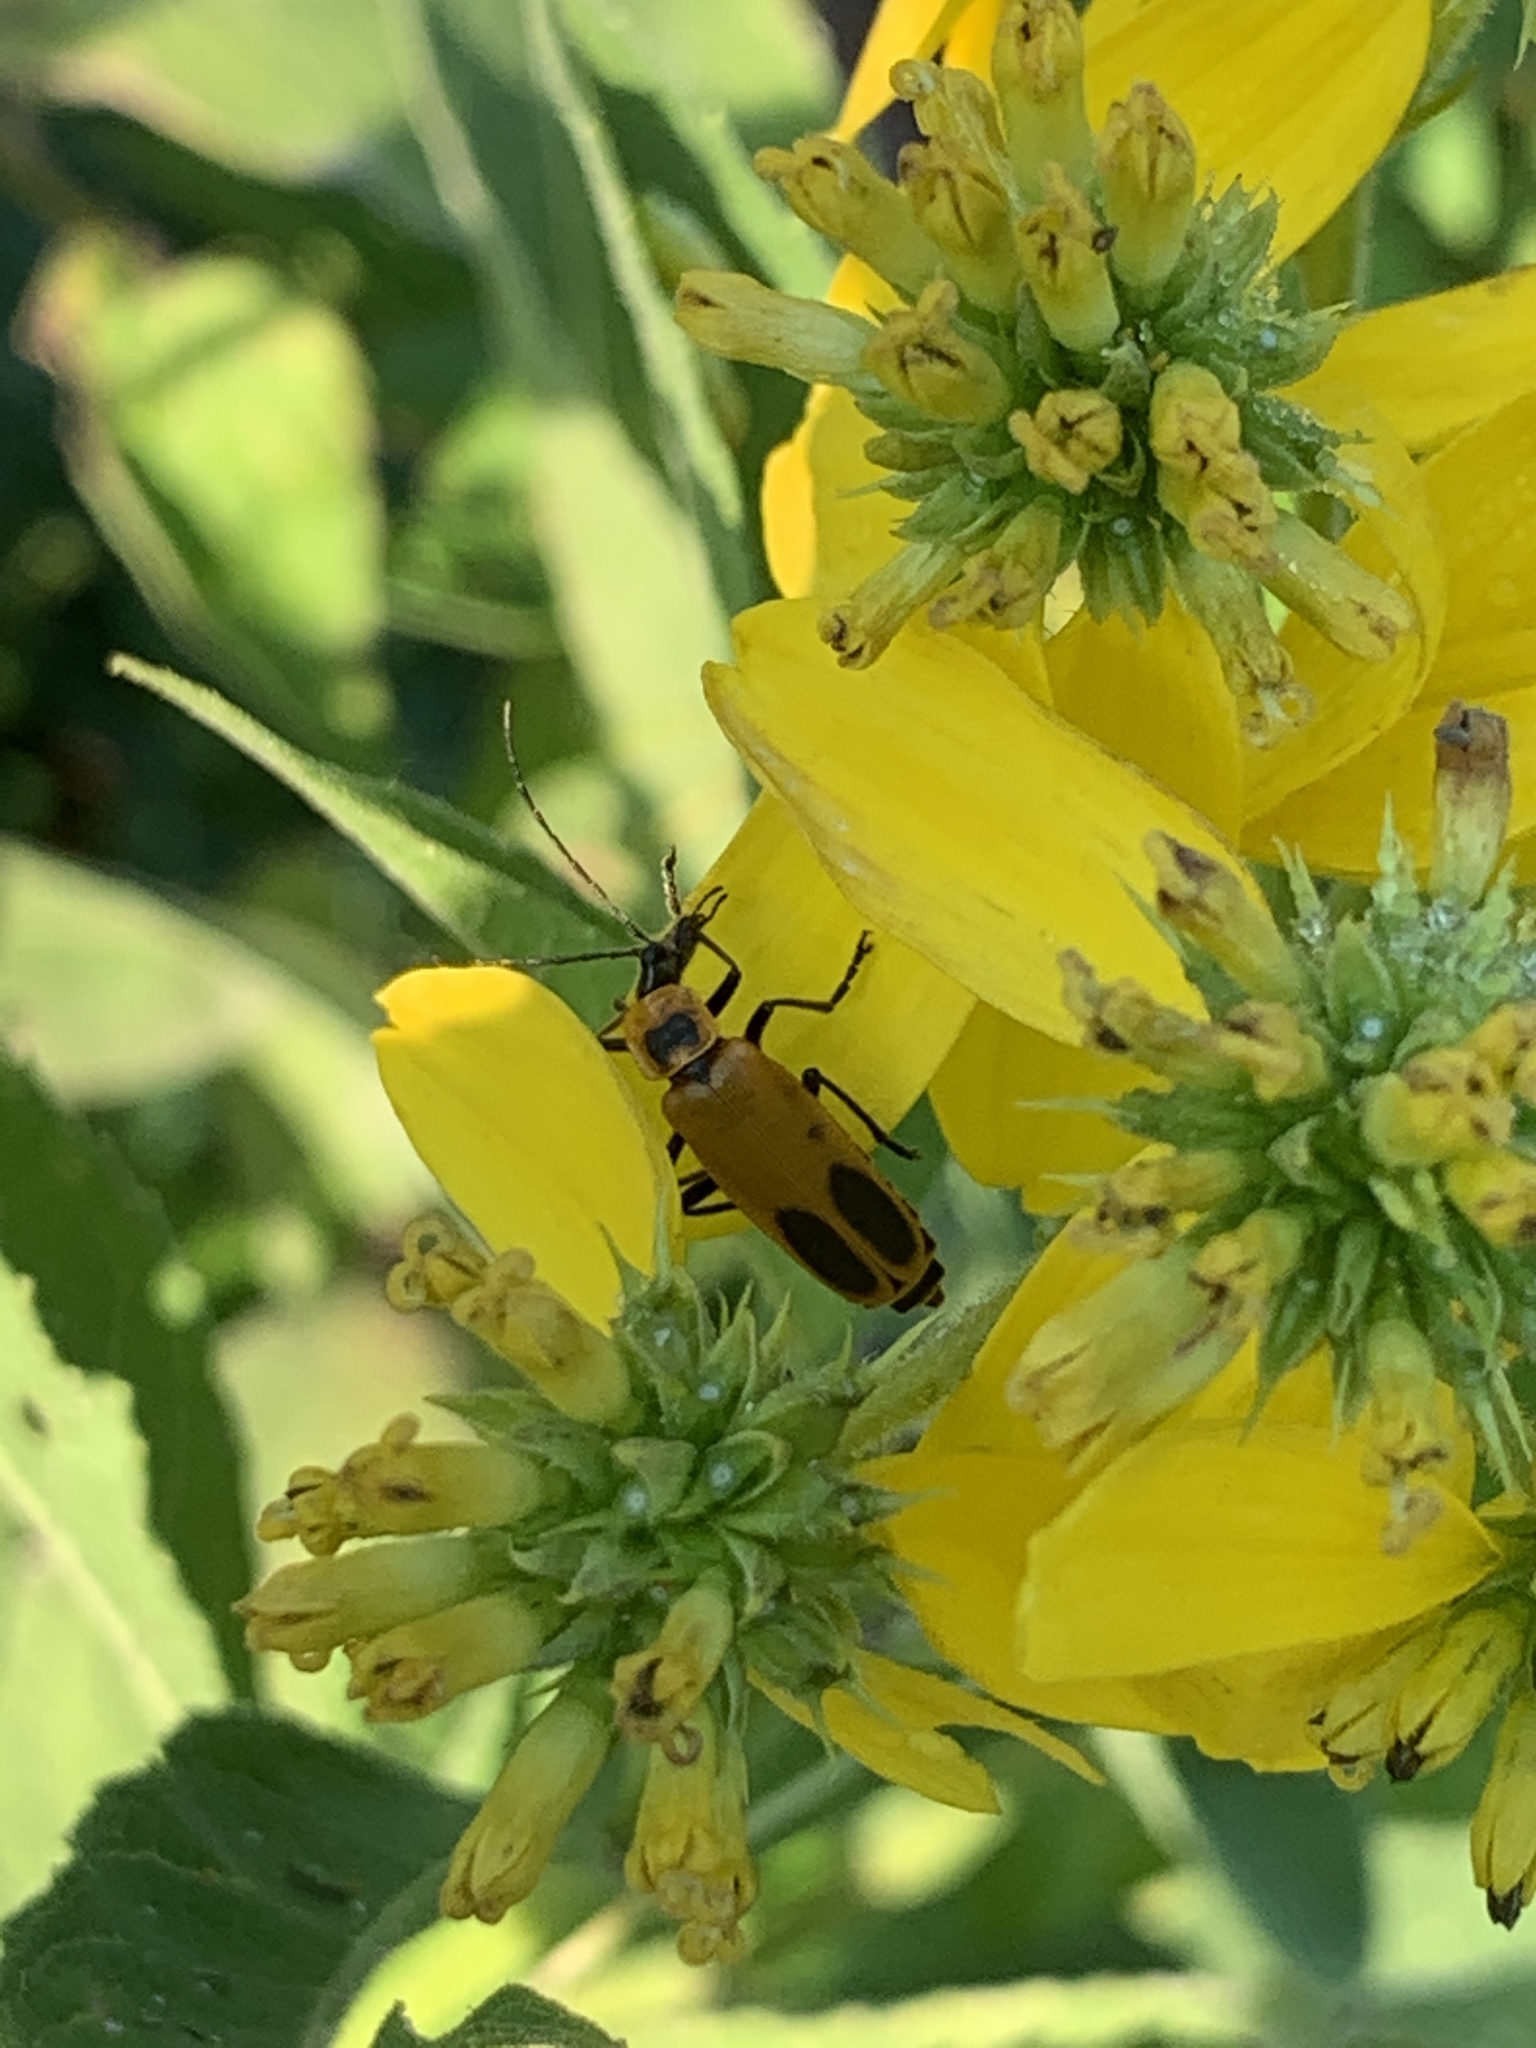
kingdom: Animalia
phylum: Arthropoda
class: Insecta
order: Coleoptera
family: Cantharidae
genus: Chauliognathus
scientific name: Chauliognathus pensylvanicus
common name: Goldenrod soldier beetle
